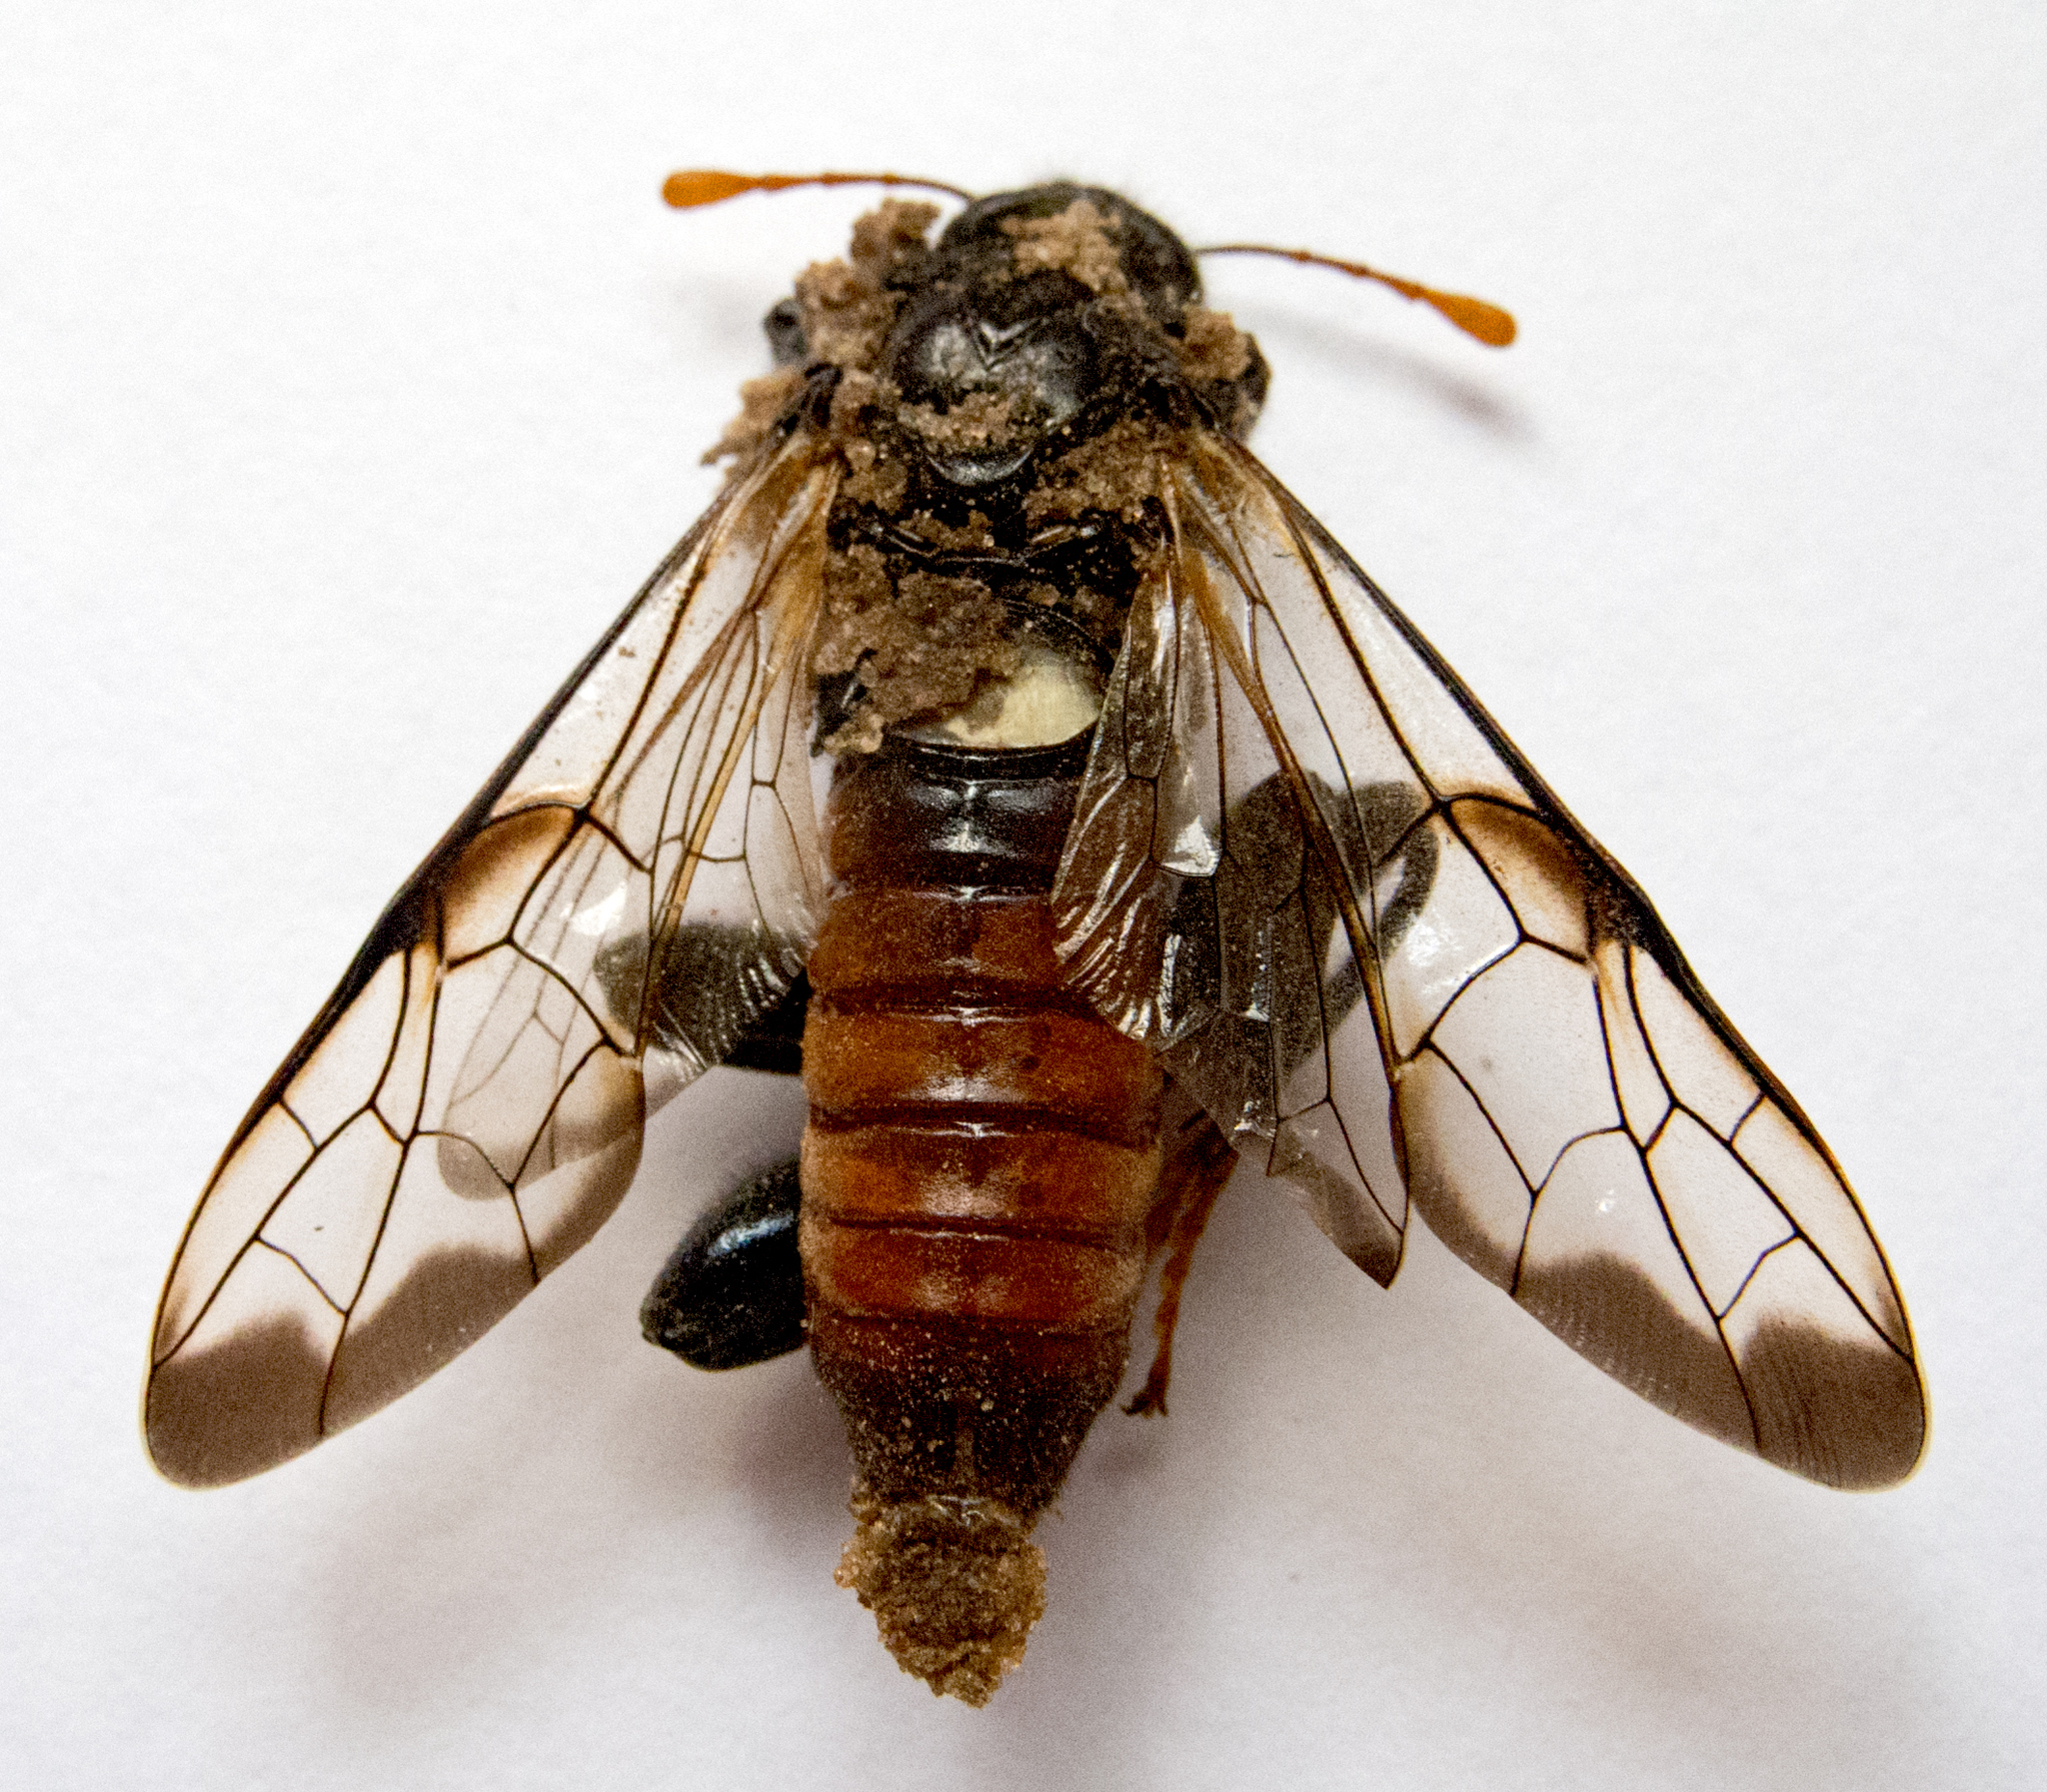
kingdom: Animalia
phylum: Arthropoda
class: Insecta
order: Hymenoptera
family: Cimbicidae
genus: Cimbex
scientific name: Cimbex femoratus
